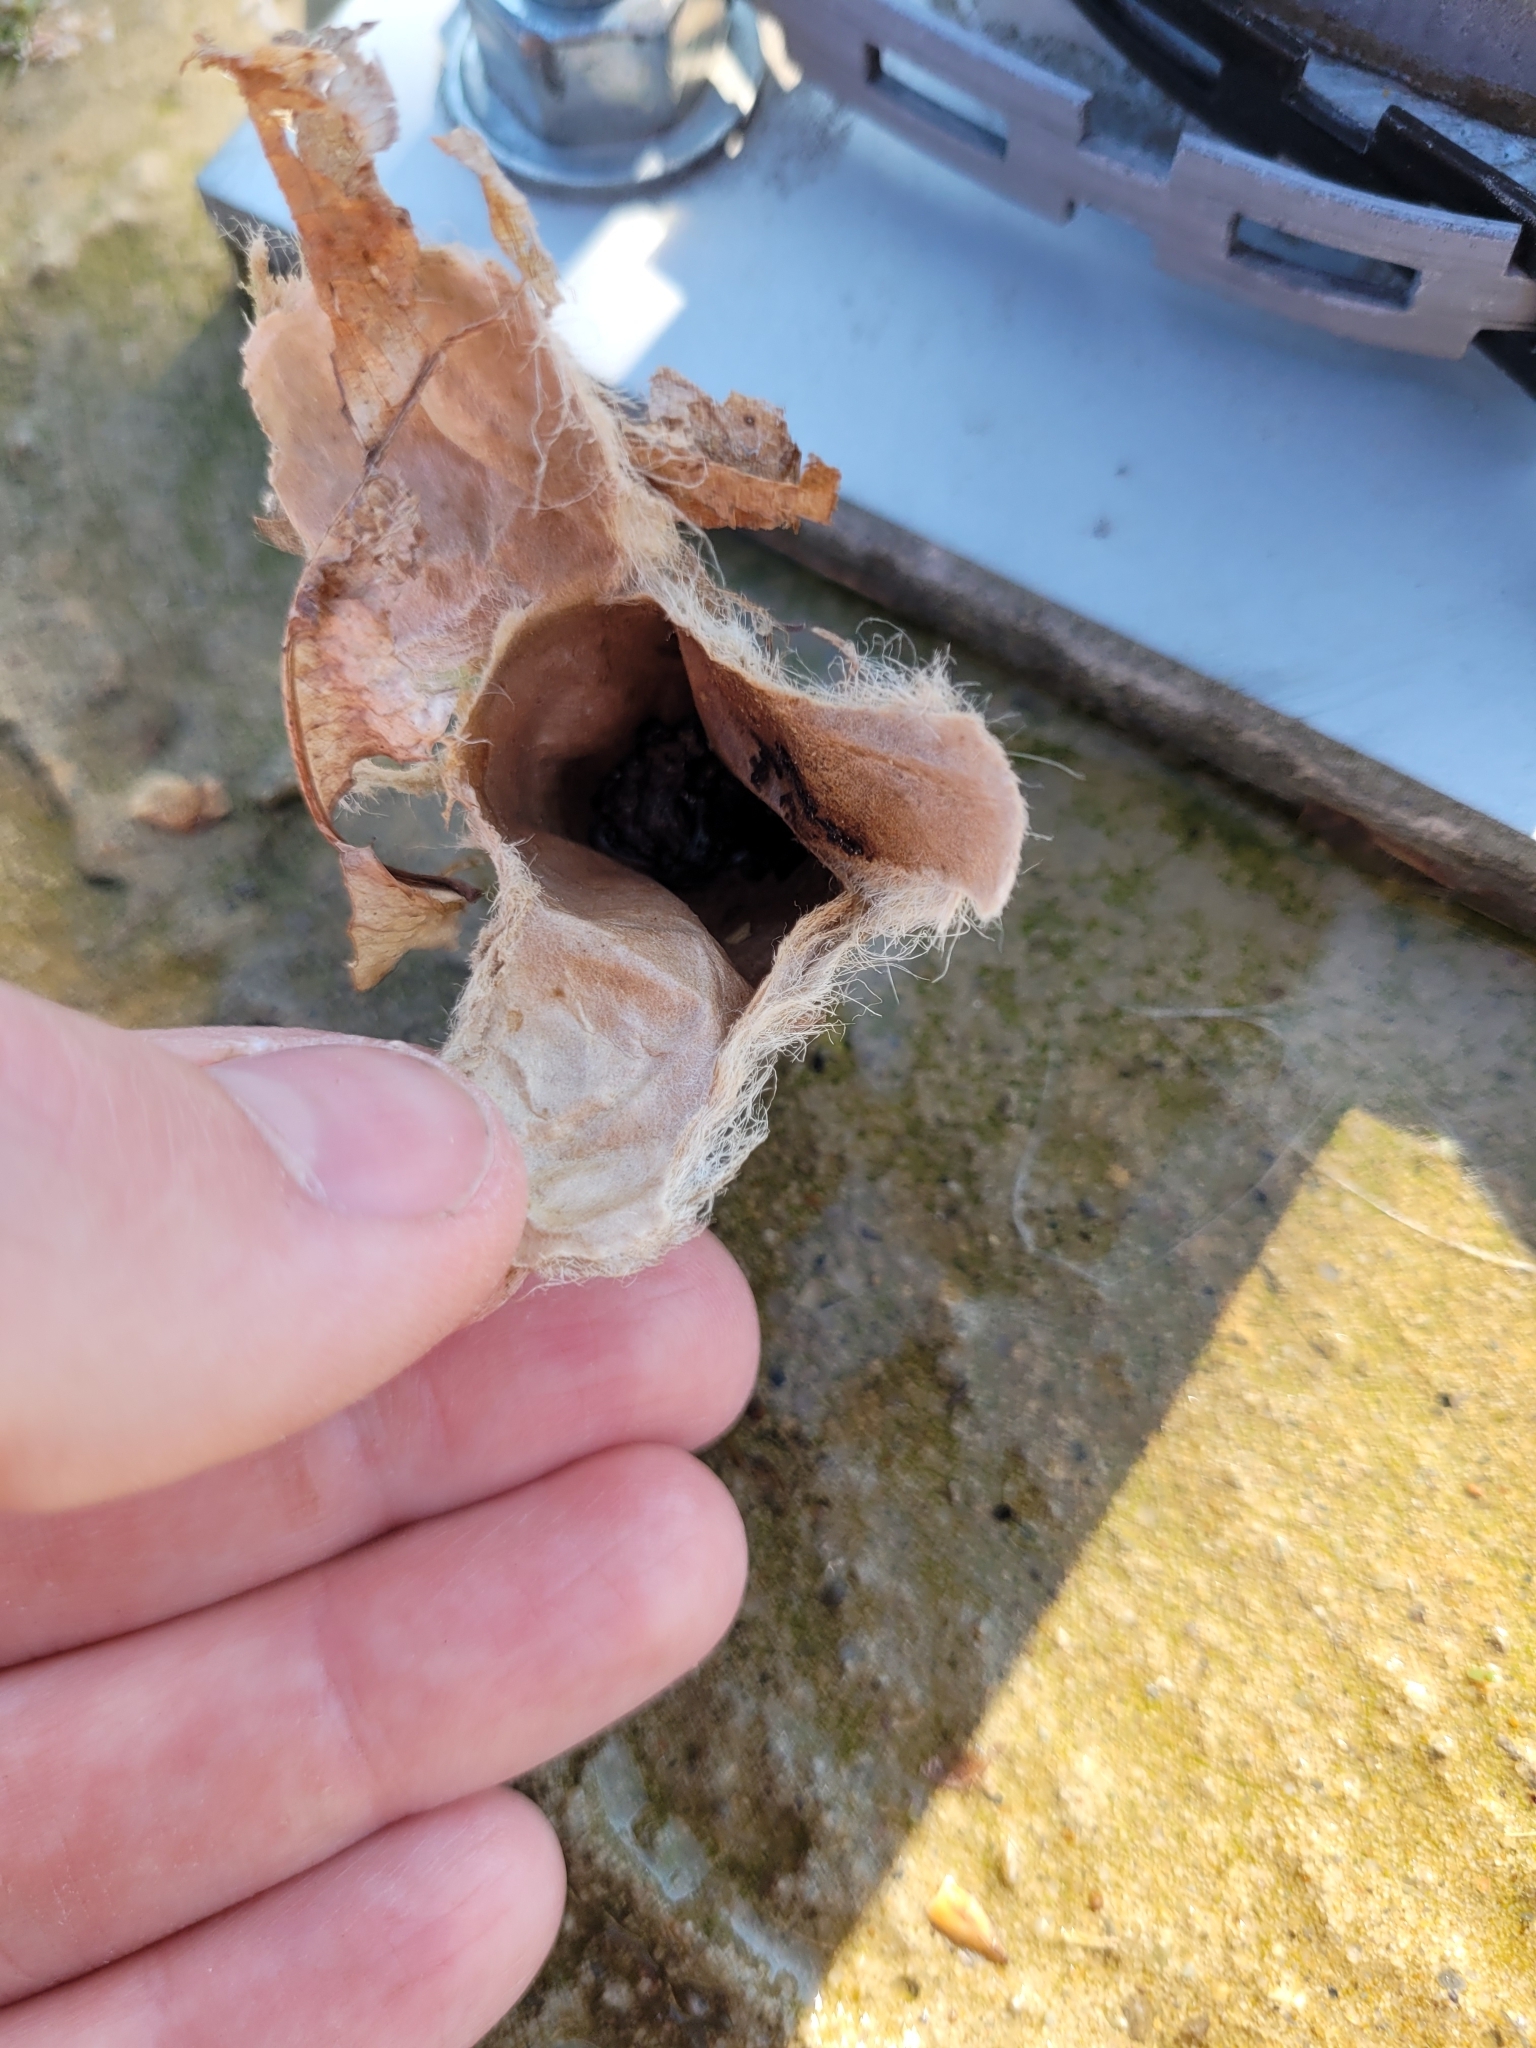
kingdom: Animalia
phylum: Arthropoda
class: Insecta
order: Lepidoptera
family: Saturniidae
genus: Antheraea
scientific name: Antheraea polyphemus
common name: Polyphemus moth
